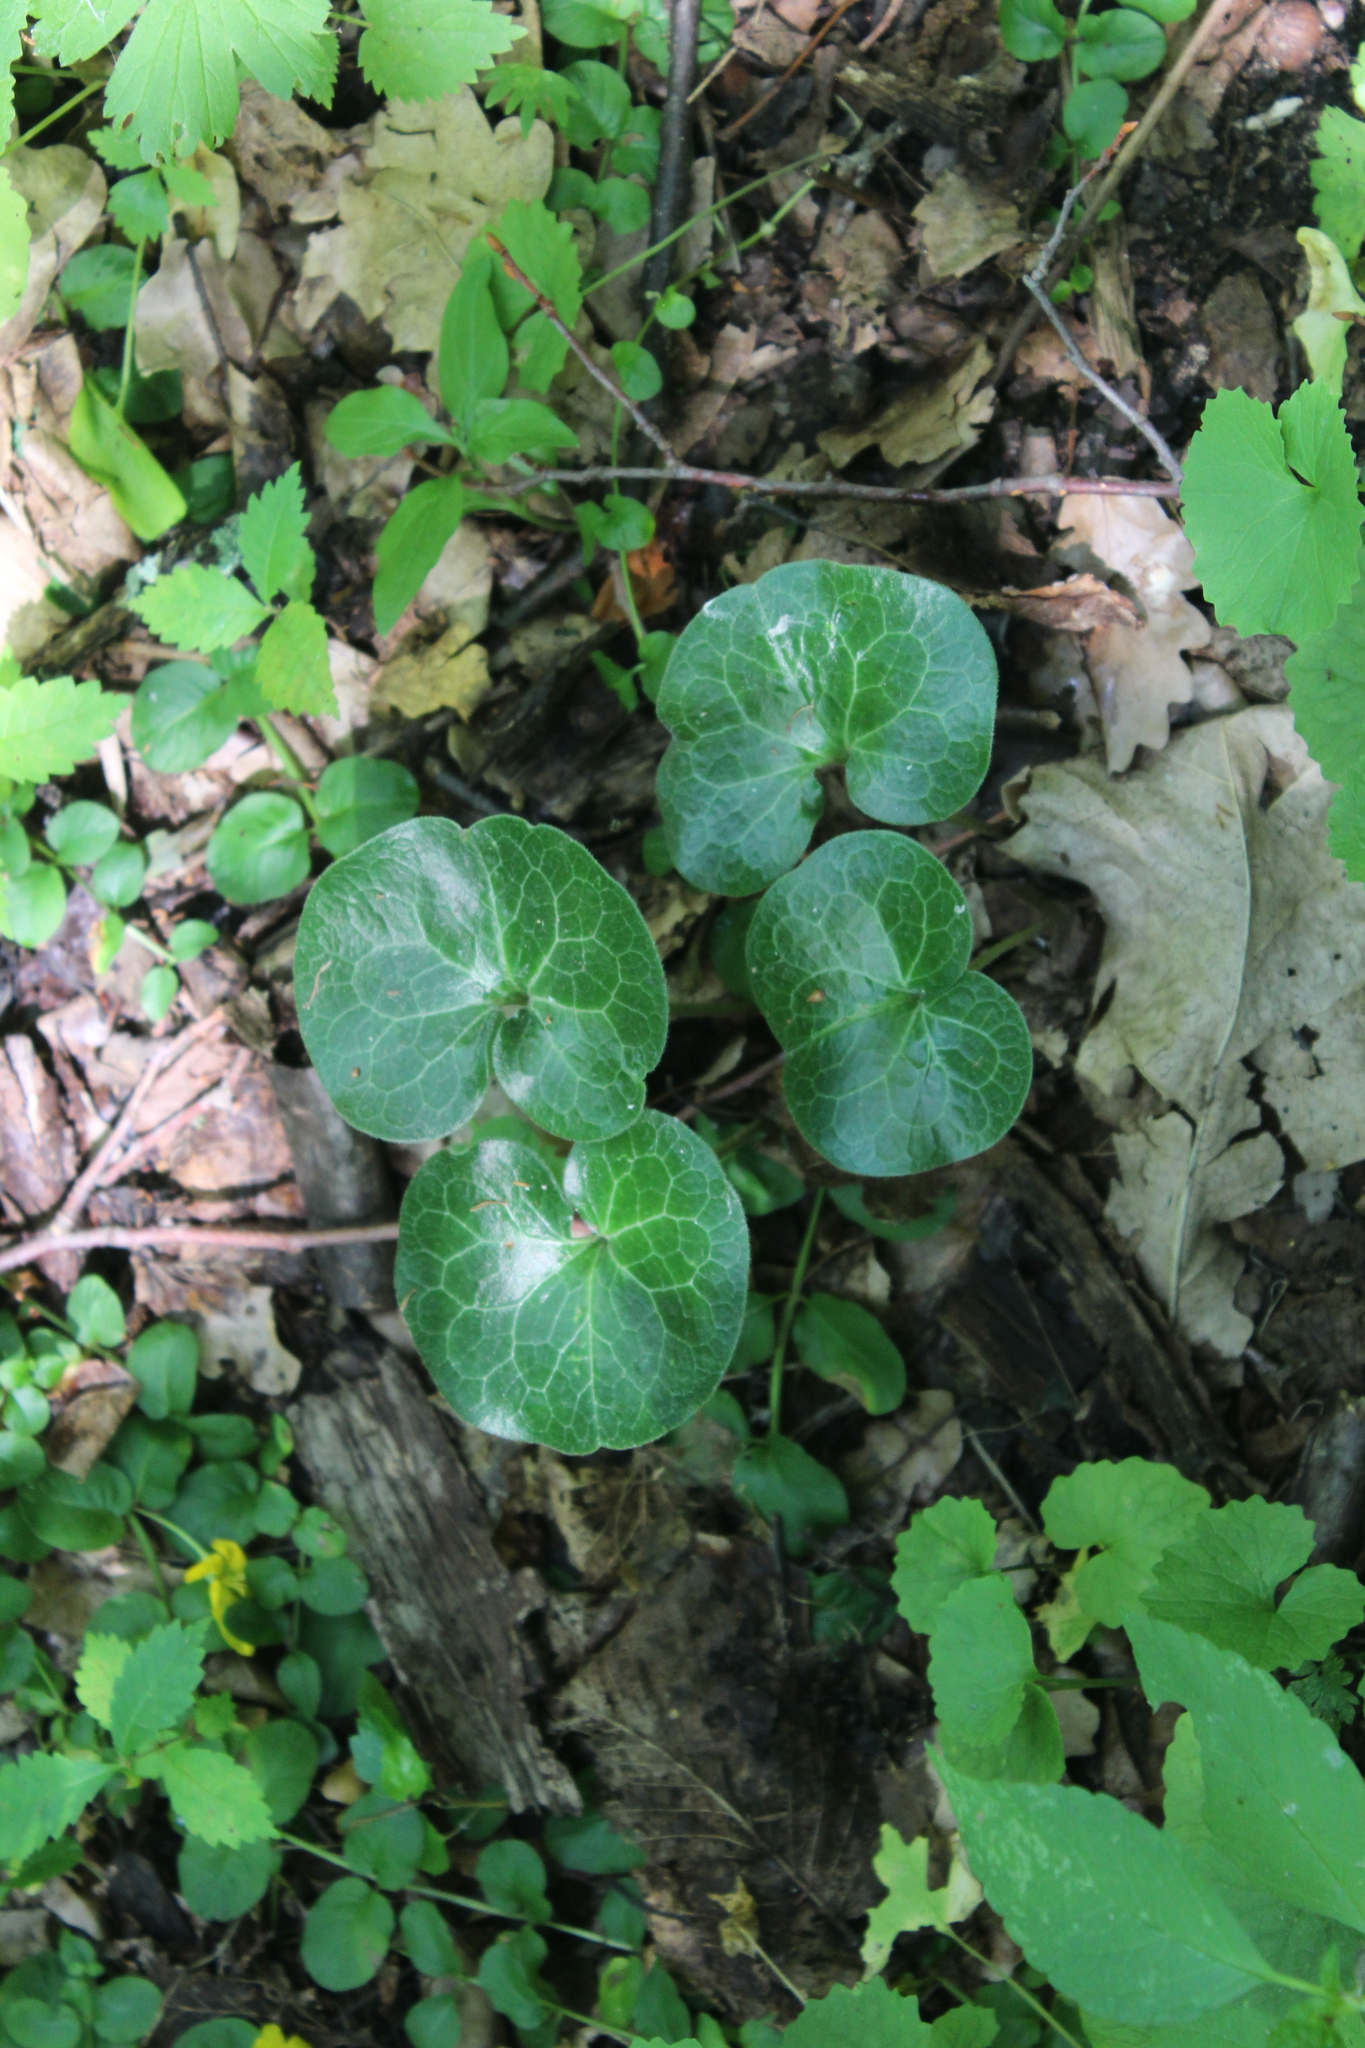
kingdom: Plantae
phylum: Tracheophyta
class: Magnoliopsida
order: Piperales
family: Aristolochiaceae
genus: Asarum
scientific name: Asarum europaeum
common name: Asarabacca
